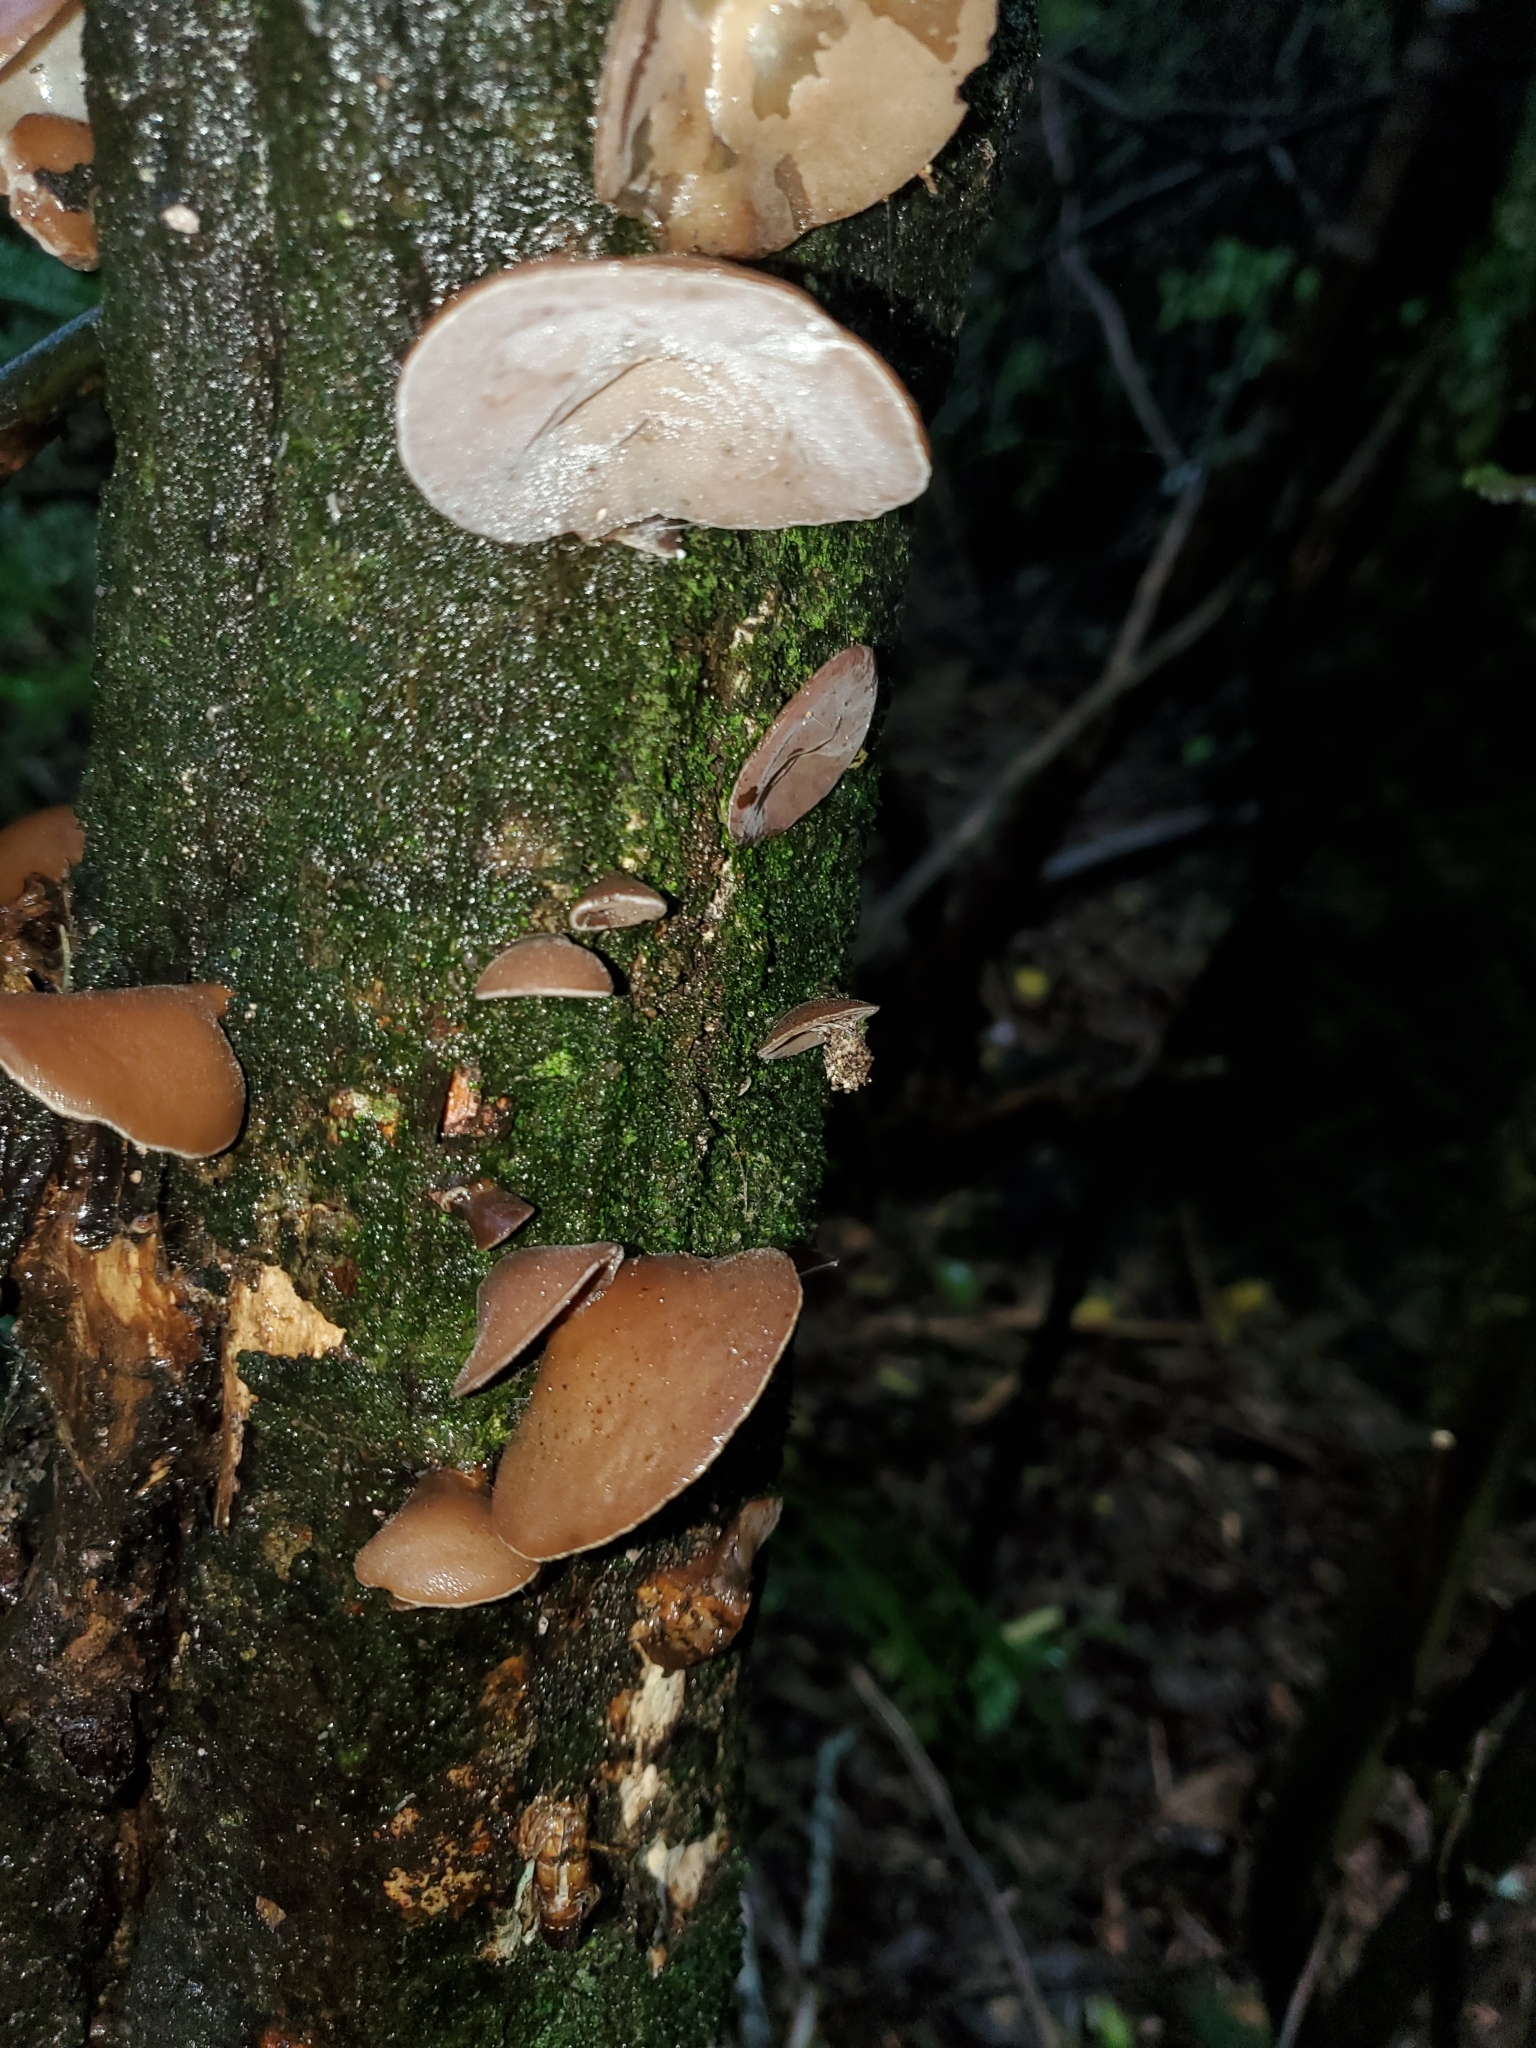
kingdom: Fungi
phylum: Basidiomycota
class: Agaricomycetes
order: Auriculariales
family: Auriculariaceae
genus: Auricularia
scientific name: Auricularia cornea
